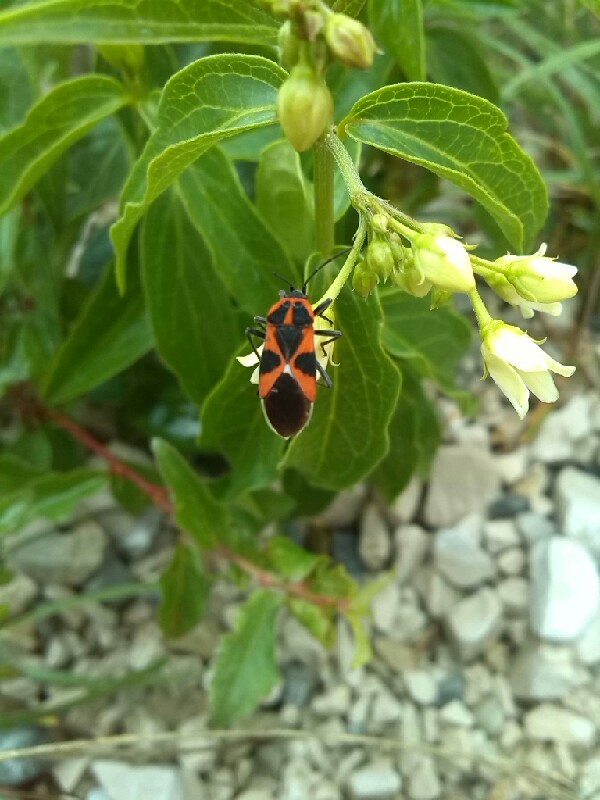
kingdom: Animalia
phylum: Arthropoda
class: Insecta
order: Hemiptera
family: Lygaeidae
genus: Tropidothorax
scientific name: Tropidothorax leucopterus
